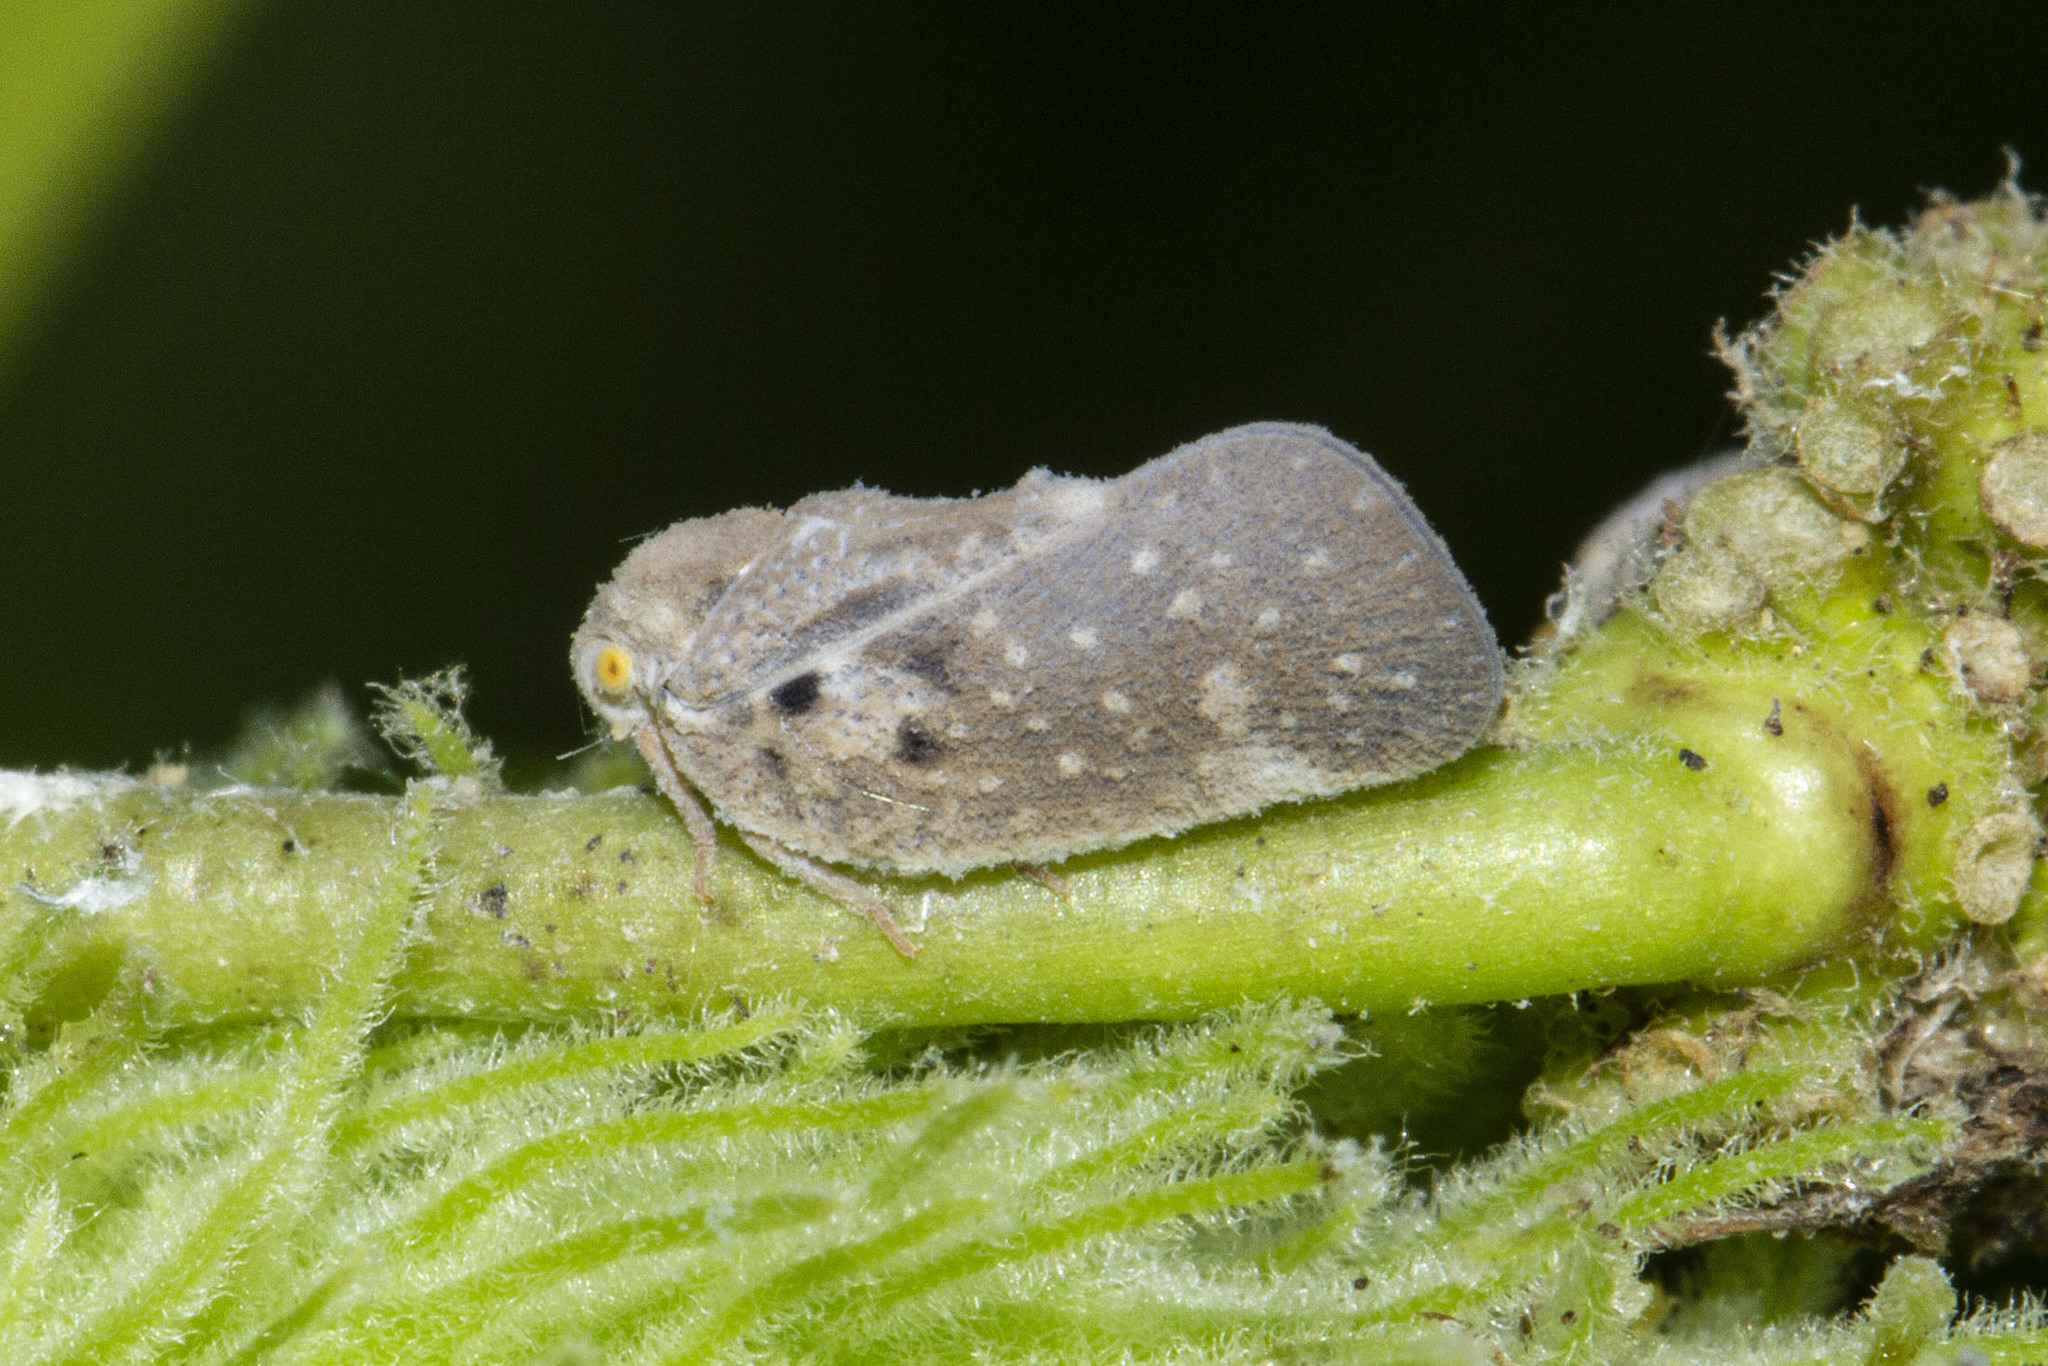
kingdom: Animalia
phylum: Arthropoda
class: Insecta
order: Hemiptera
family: Flatidae
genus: Metcalfa
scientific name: Metcalfa pruinosa
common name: Citrus flatid planthopper
